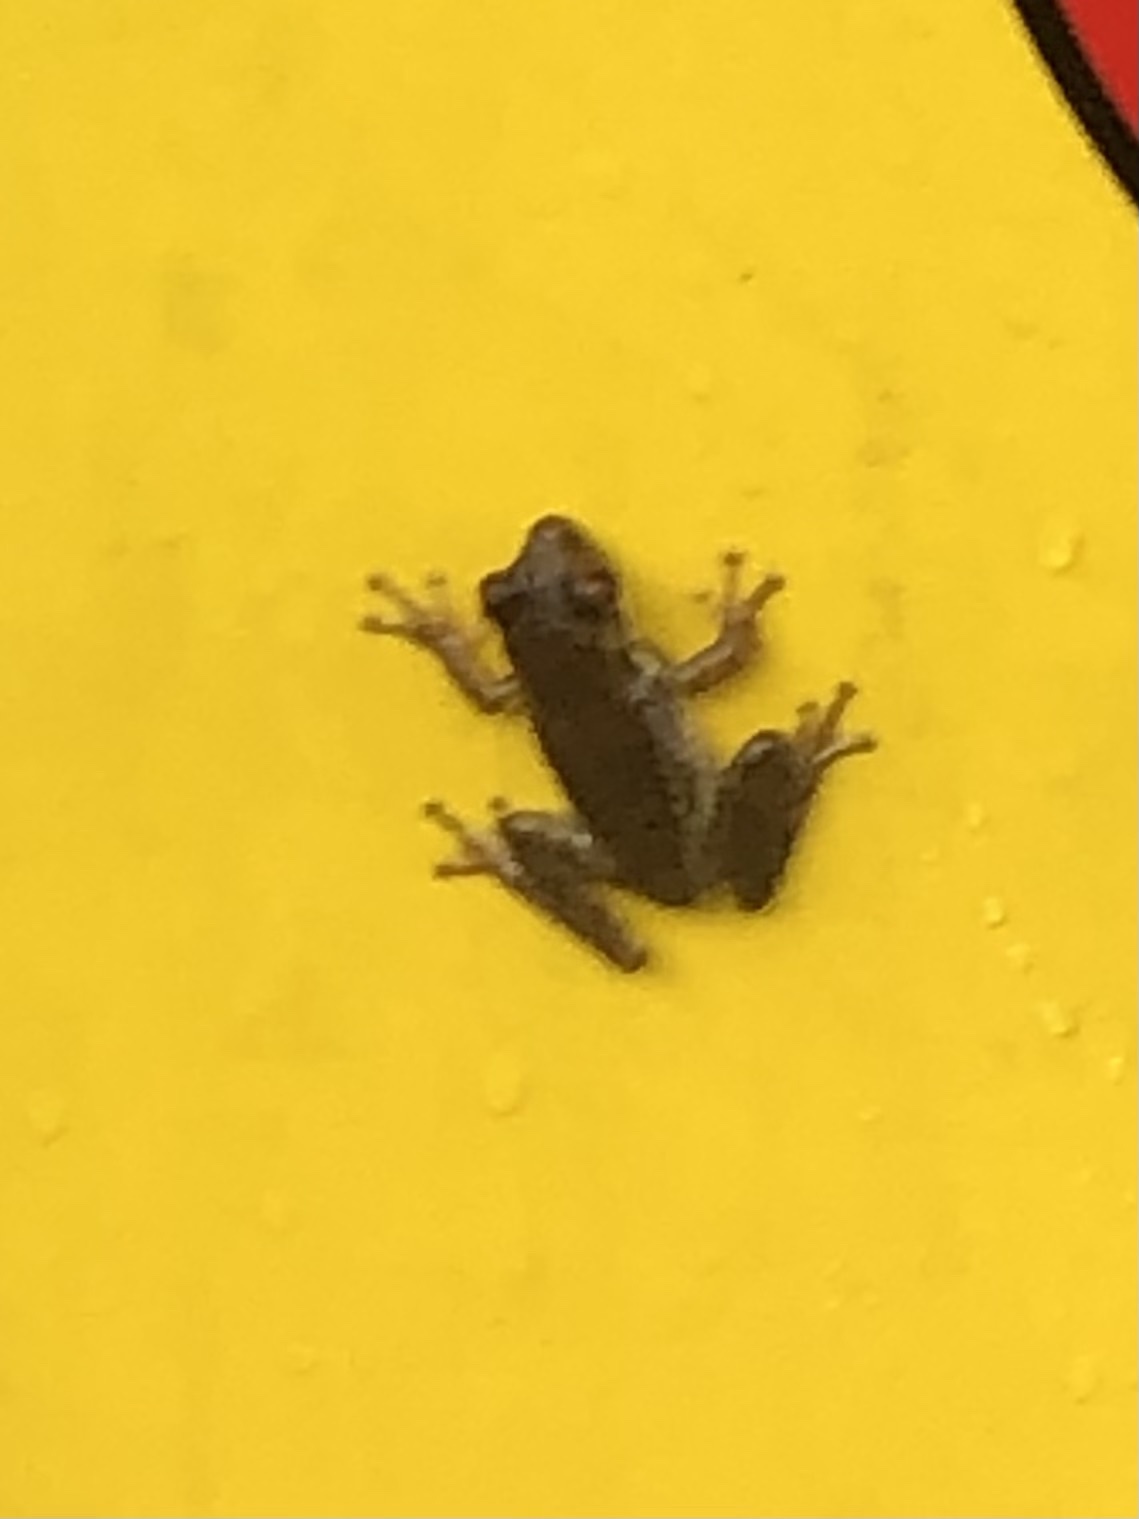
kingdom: Animalia
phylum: Chordata
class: Amphibia
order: Anura
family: Hylidae
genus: Osteopilus
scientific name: Osteopilus septentrionalis
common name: Cuban treefrog
